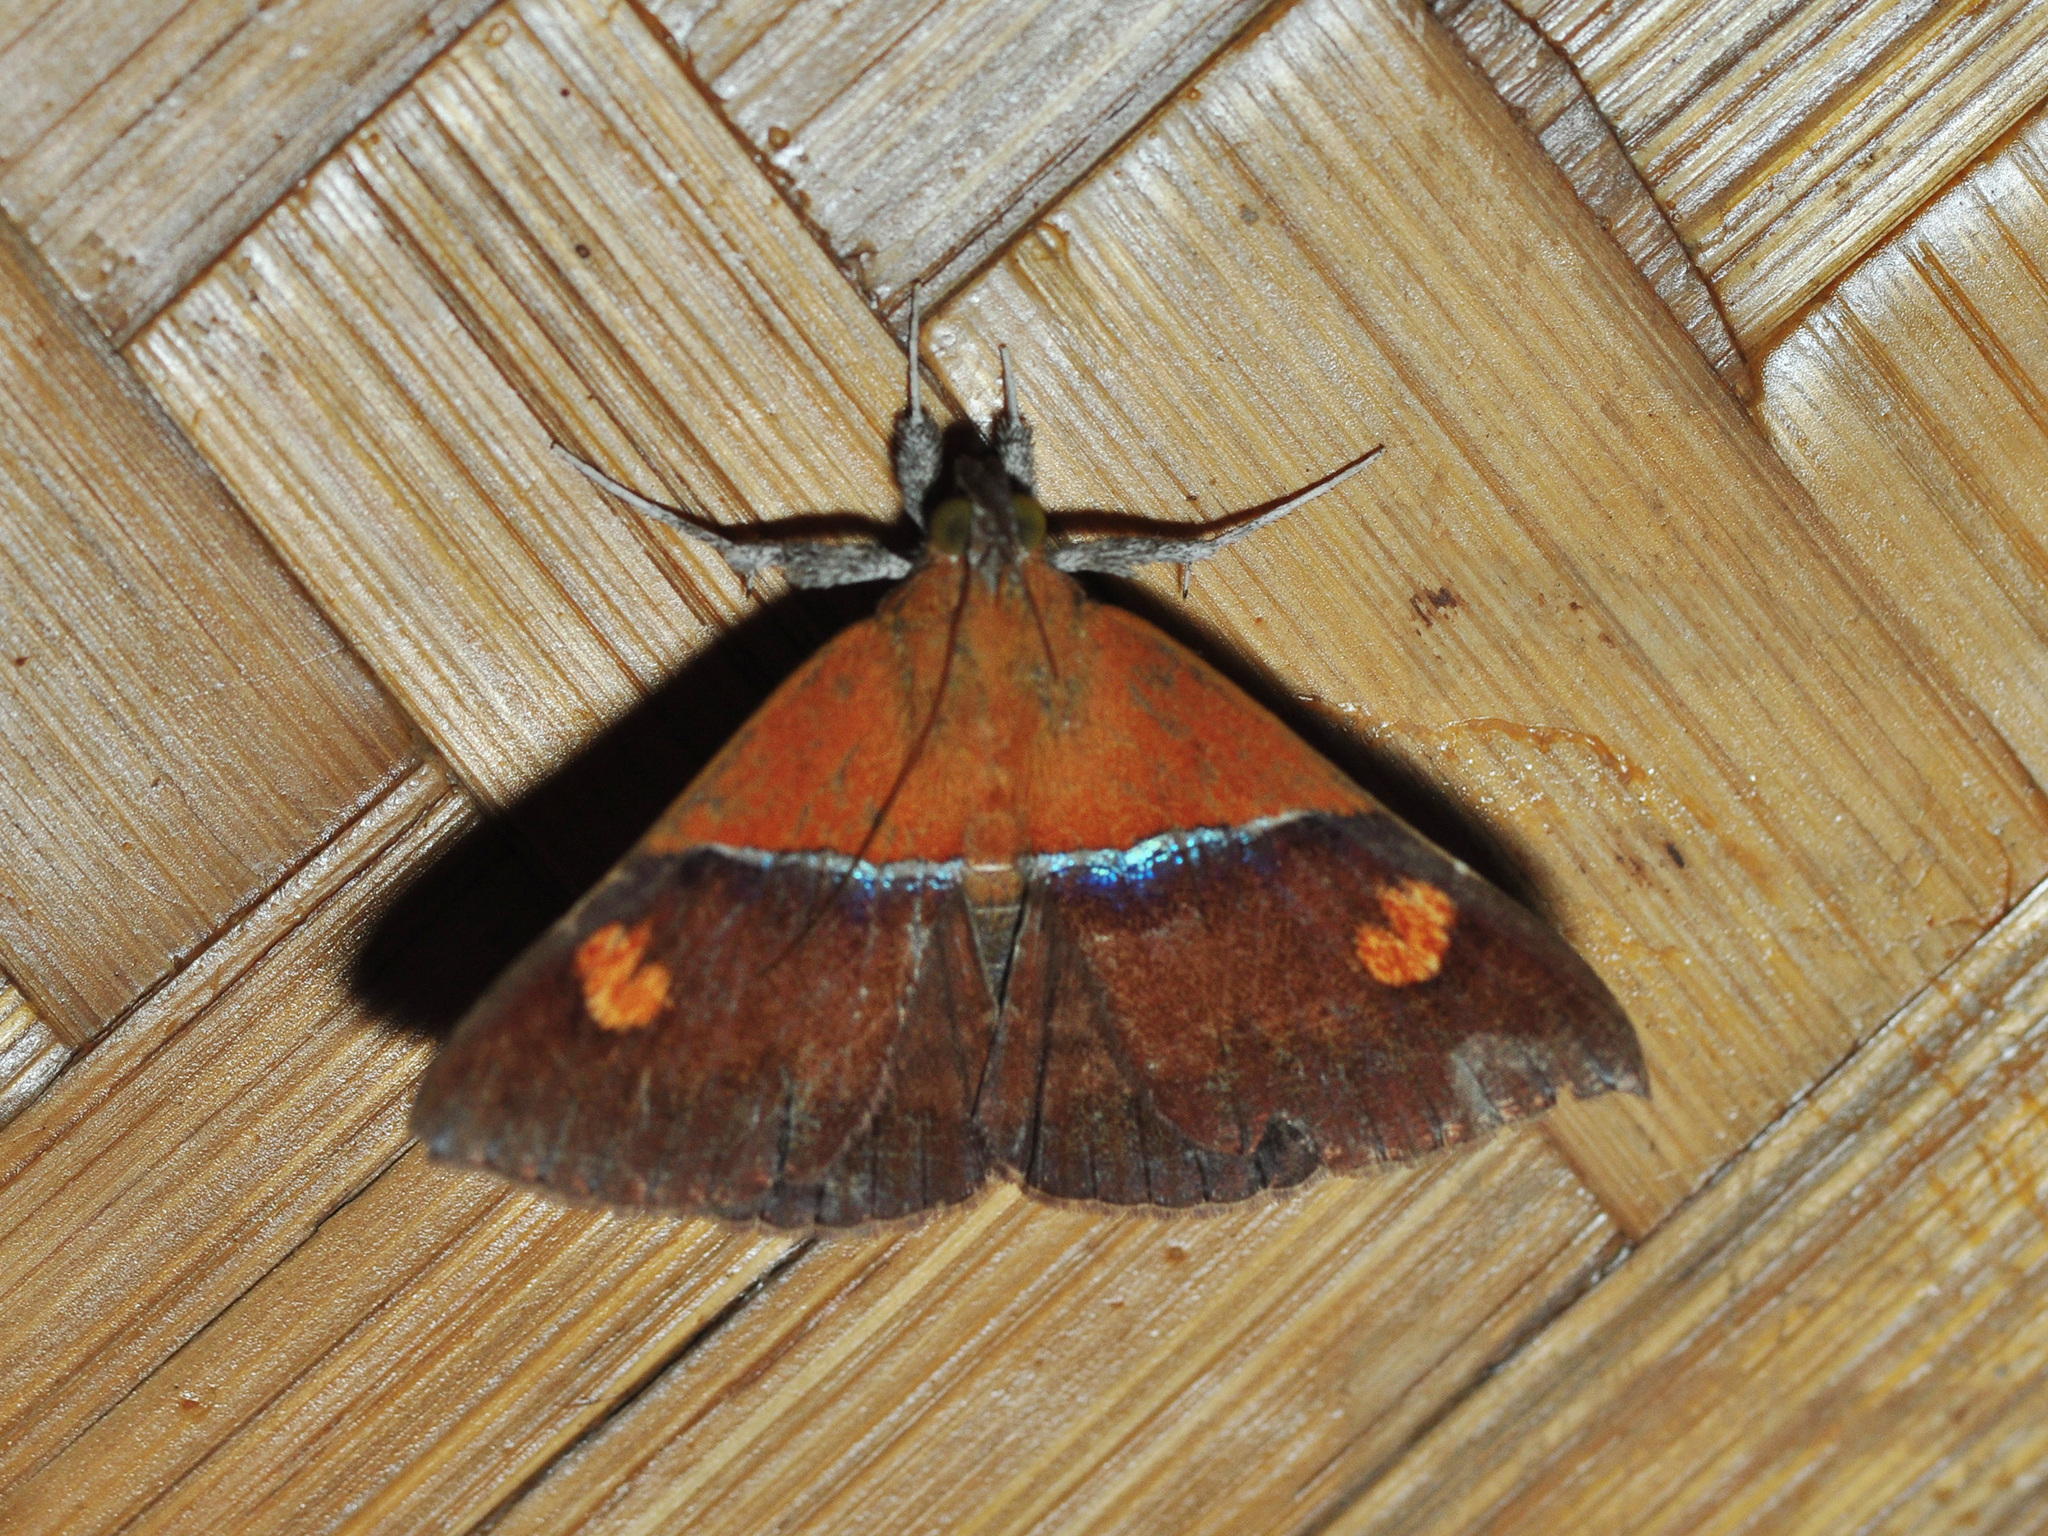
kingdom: Animalia
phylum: Arthropoda
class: Insecta
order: Lepidoptera
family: Erebidae
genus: Sympis
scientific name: Sympis rufibasis
